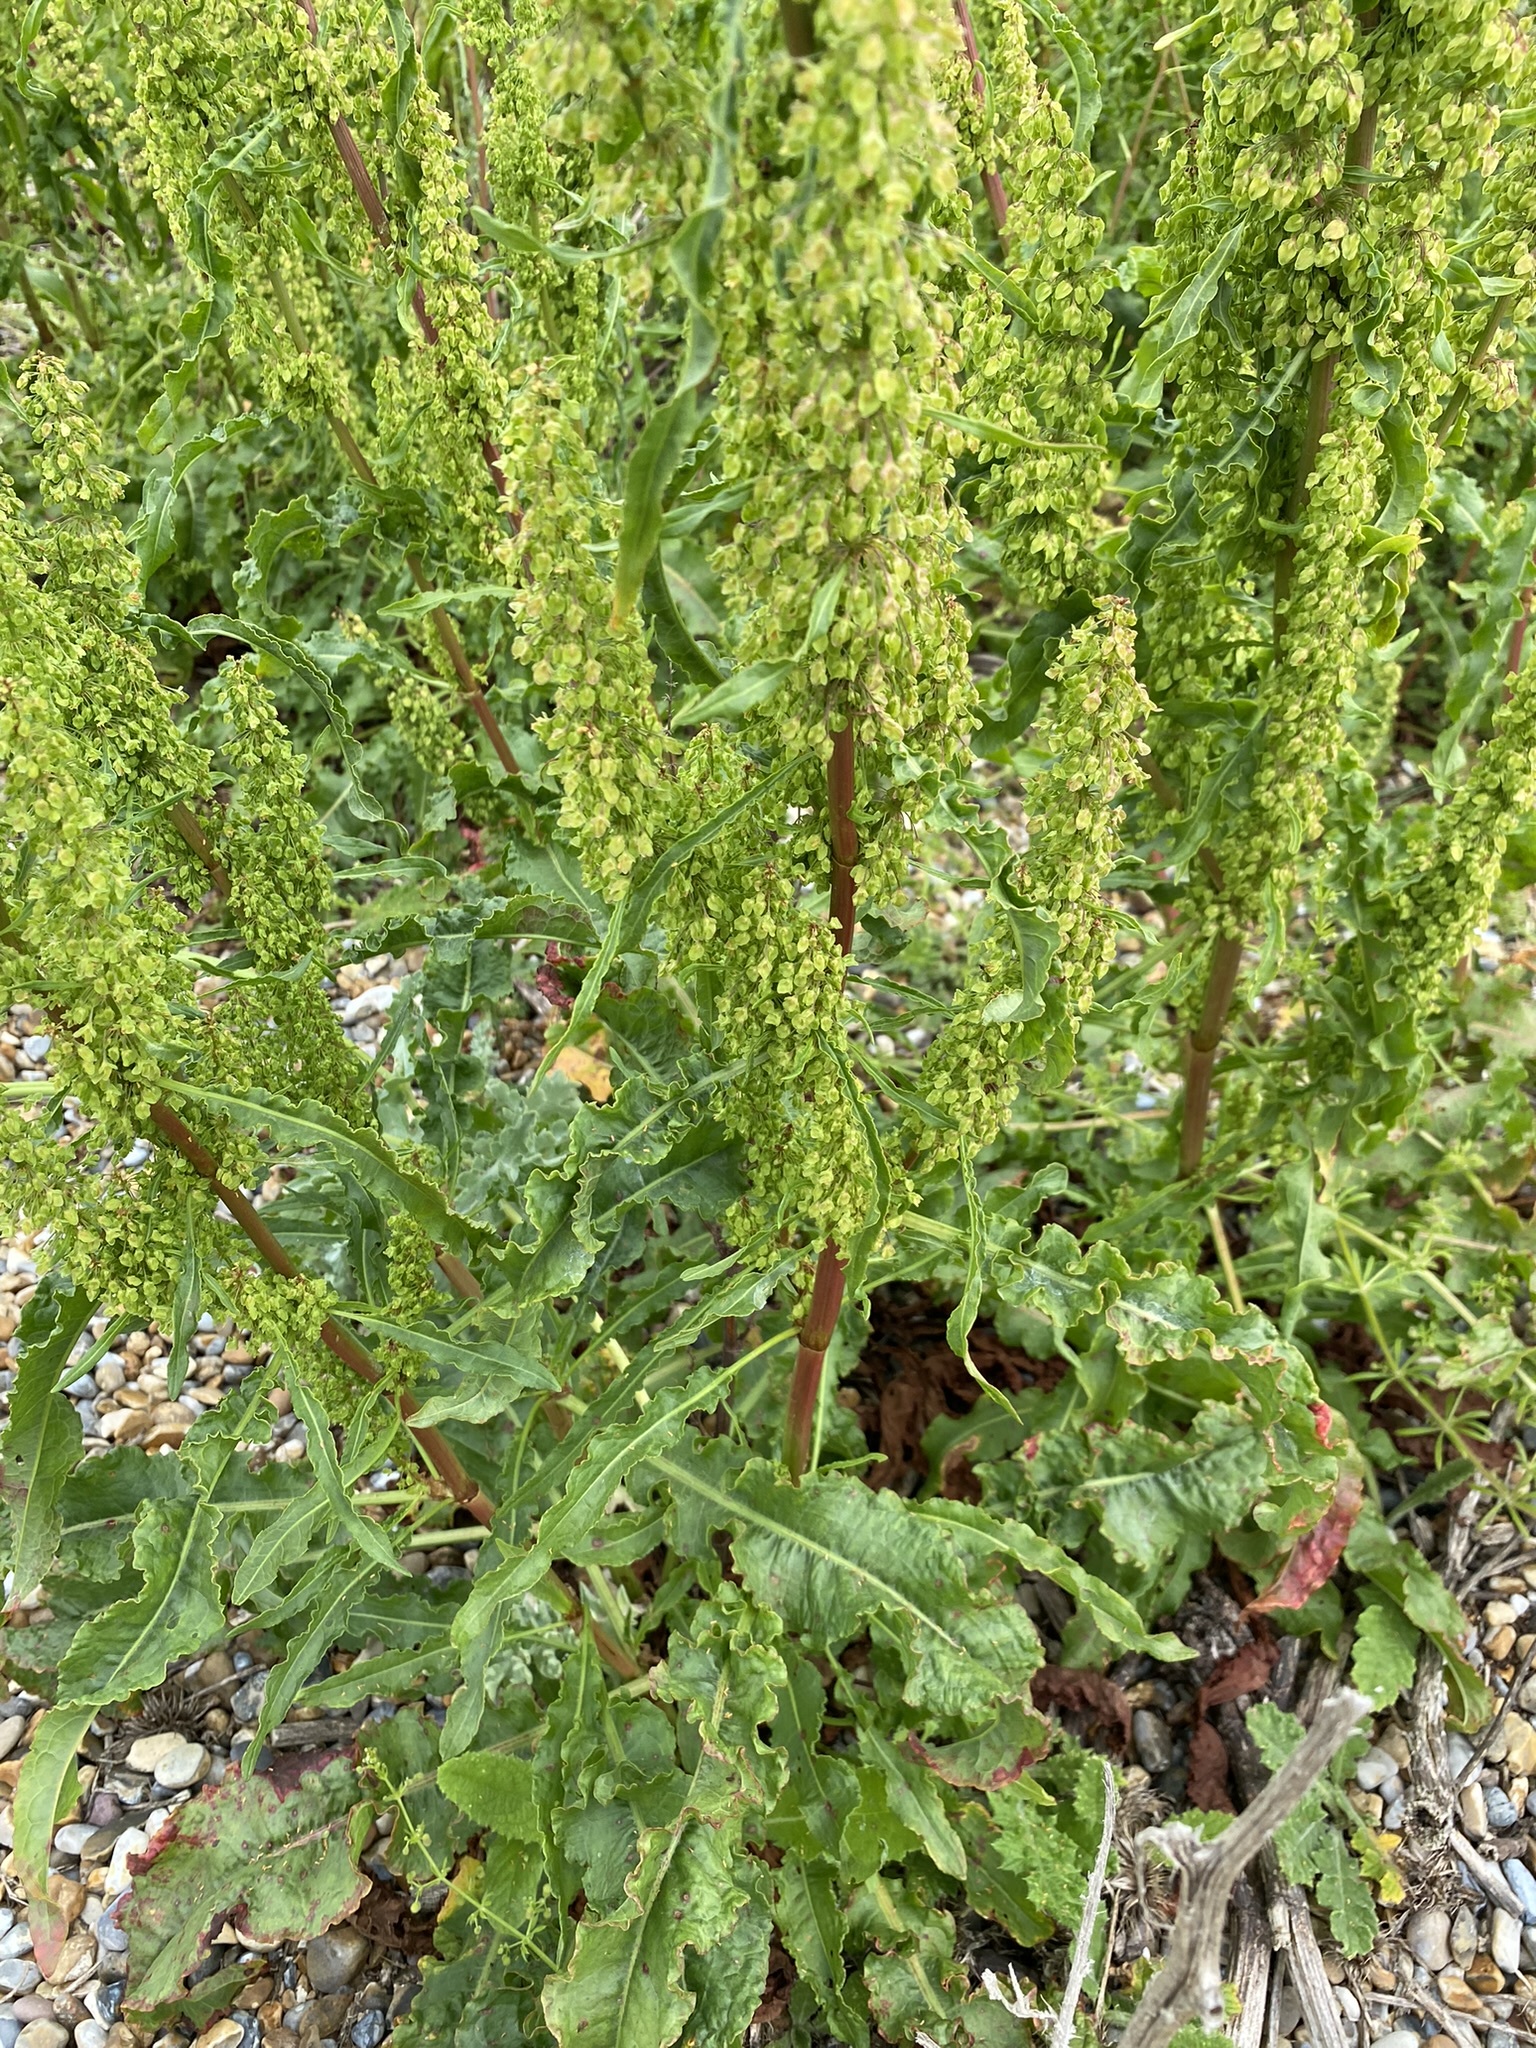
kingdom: Plantae
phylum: Tracheophyta
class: Magnoliopsida
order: Caryophyllales
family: Polygonaceae
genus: Rumex
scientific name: Rumex crispus
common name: Curled dock
